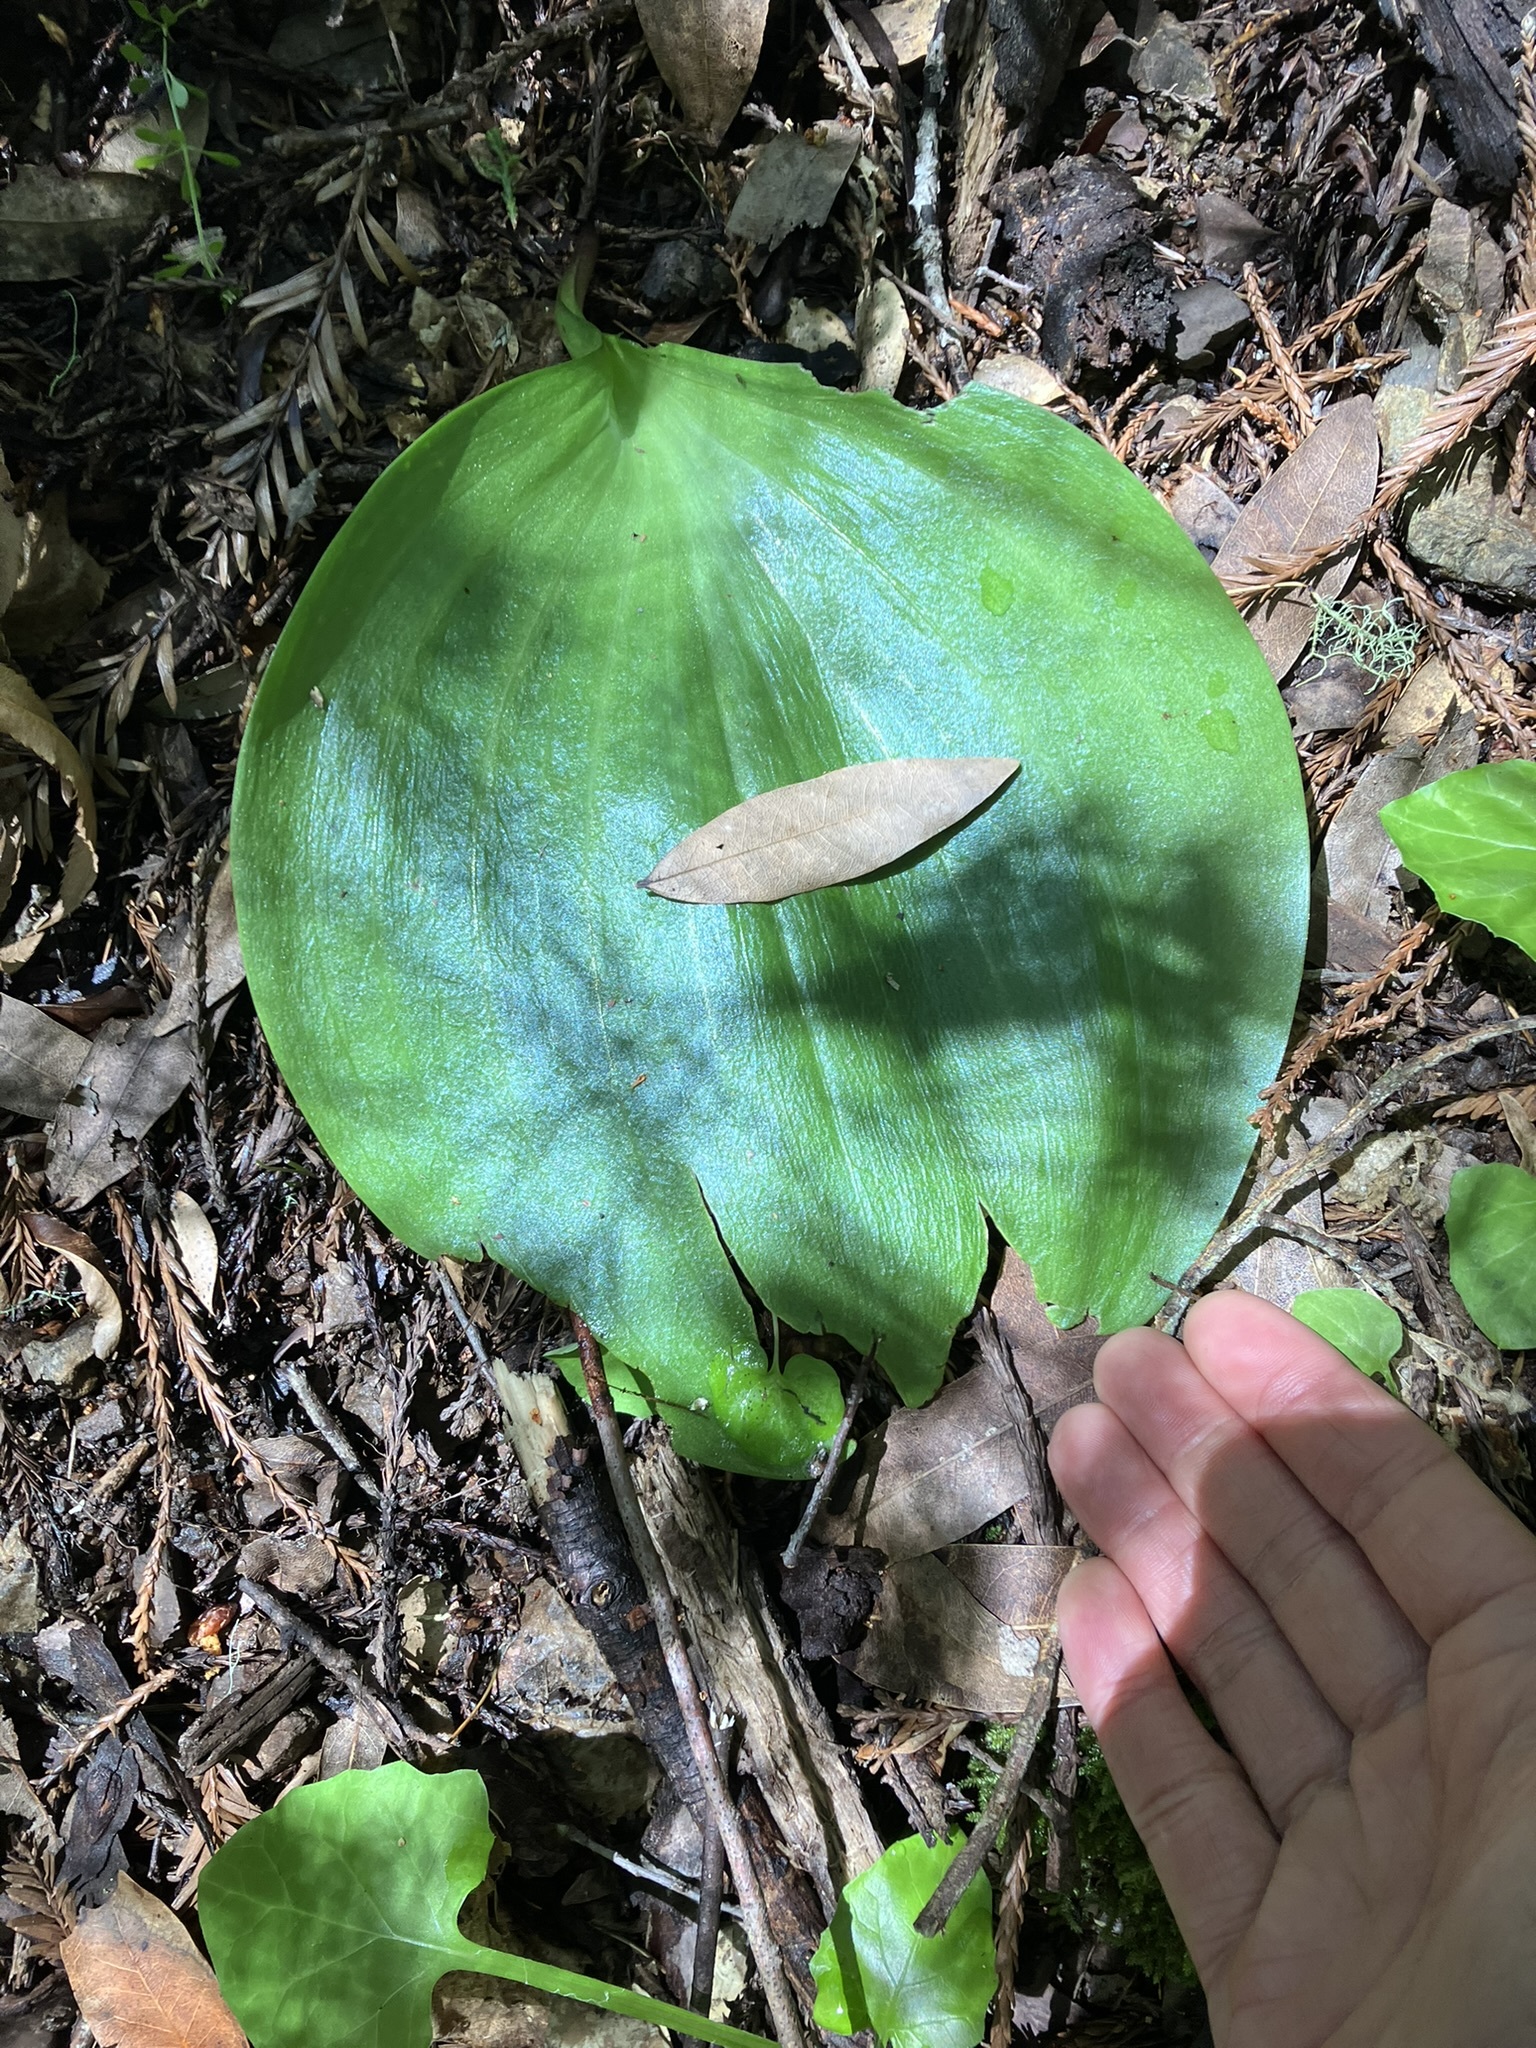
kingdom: Plantae
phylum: Tracheophyta
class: Liliopsida
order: Liliales
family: Liliaceae
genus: Fritillaria
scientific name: Fritillaria affinis
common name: Ojai fritillary
